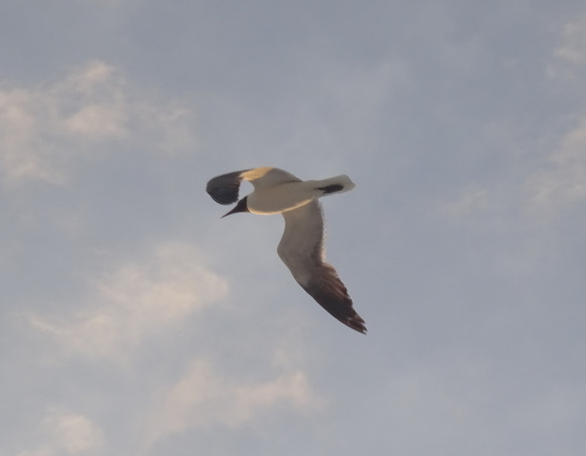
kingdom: Animalia
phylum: Chordata
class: Aves
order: Charadriiformes
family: Laridae
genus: Leucophaeus
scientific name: Leucophaeus atricilla
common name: Laughing gull
